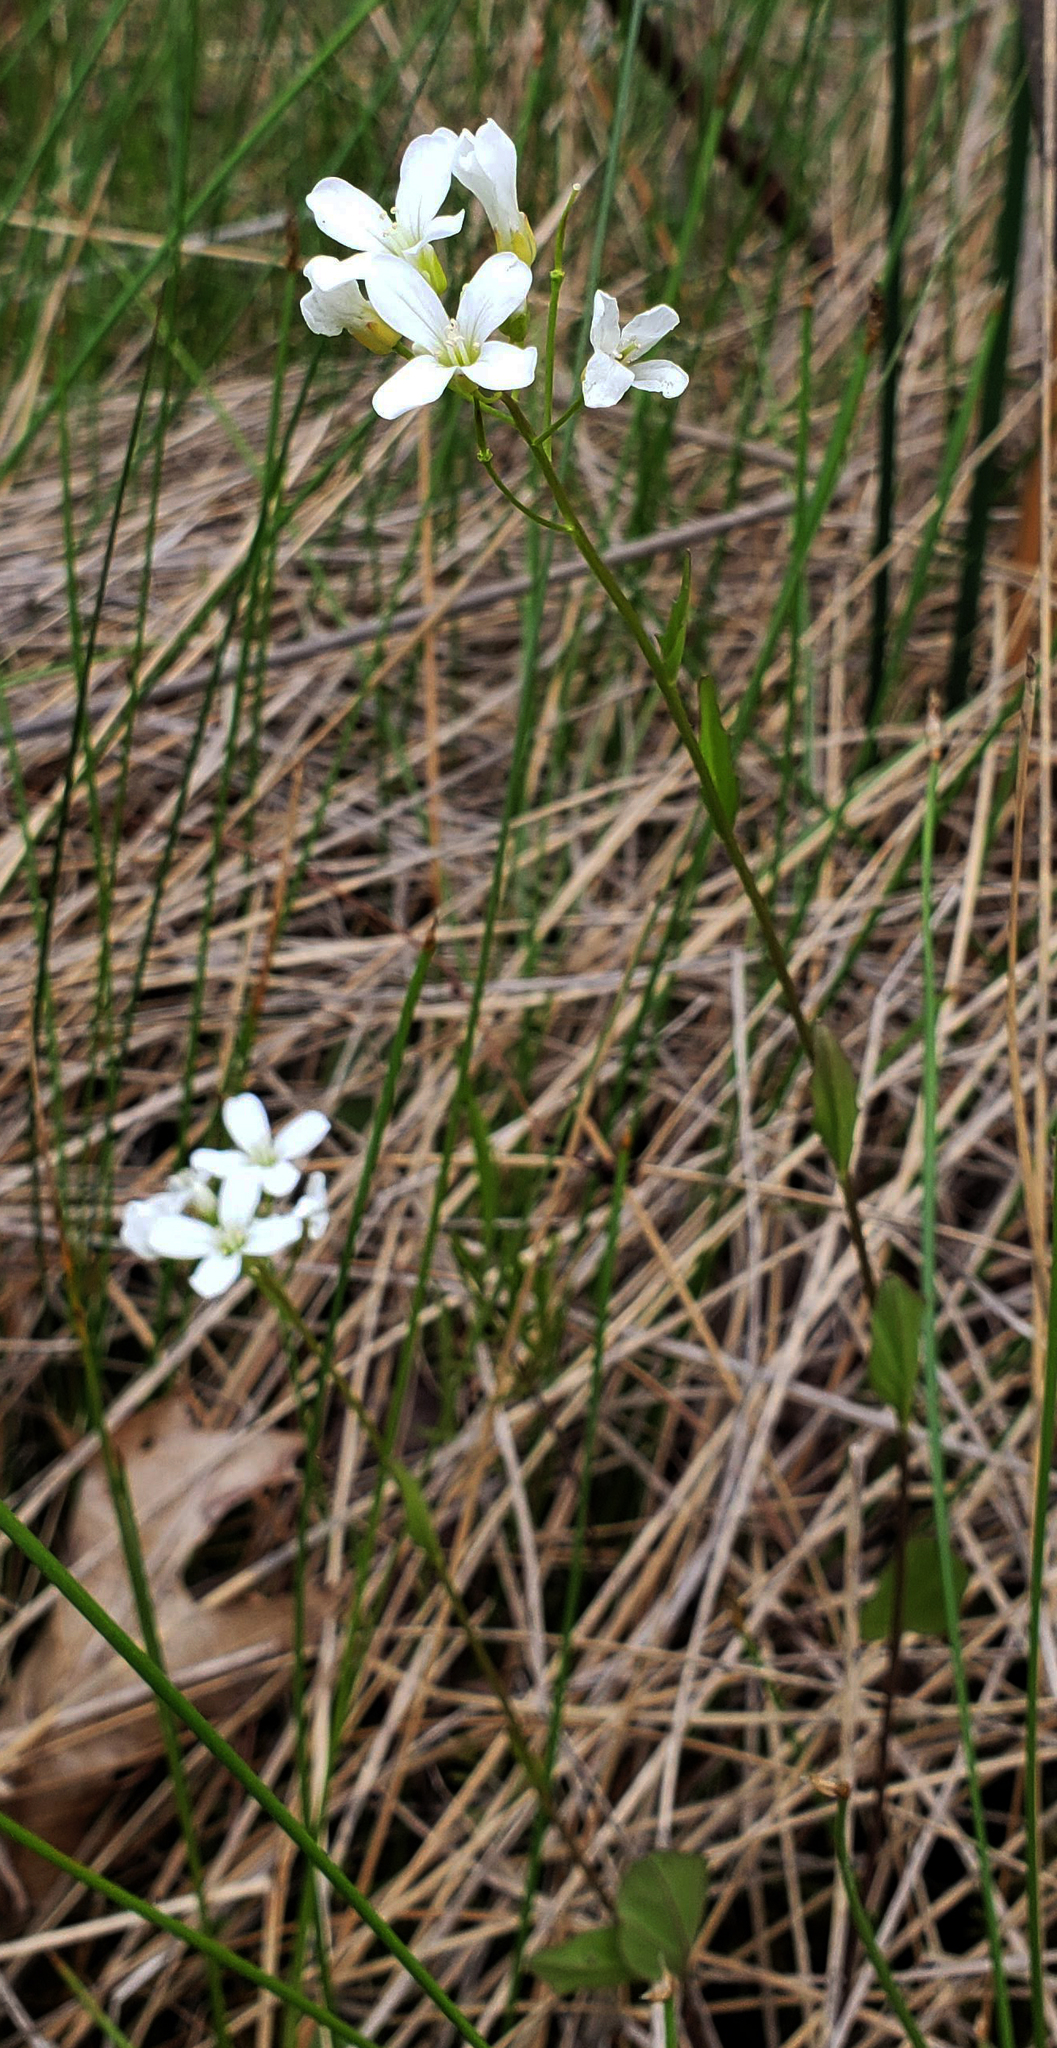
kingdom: Plantae
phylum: Tracheophyta
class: Magnoliopsida
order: Brassicales
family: Brassicaceae
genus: Cardamine
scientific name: Cardamine bulbosa
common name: Spring cress
